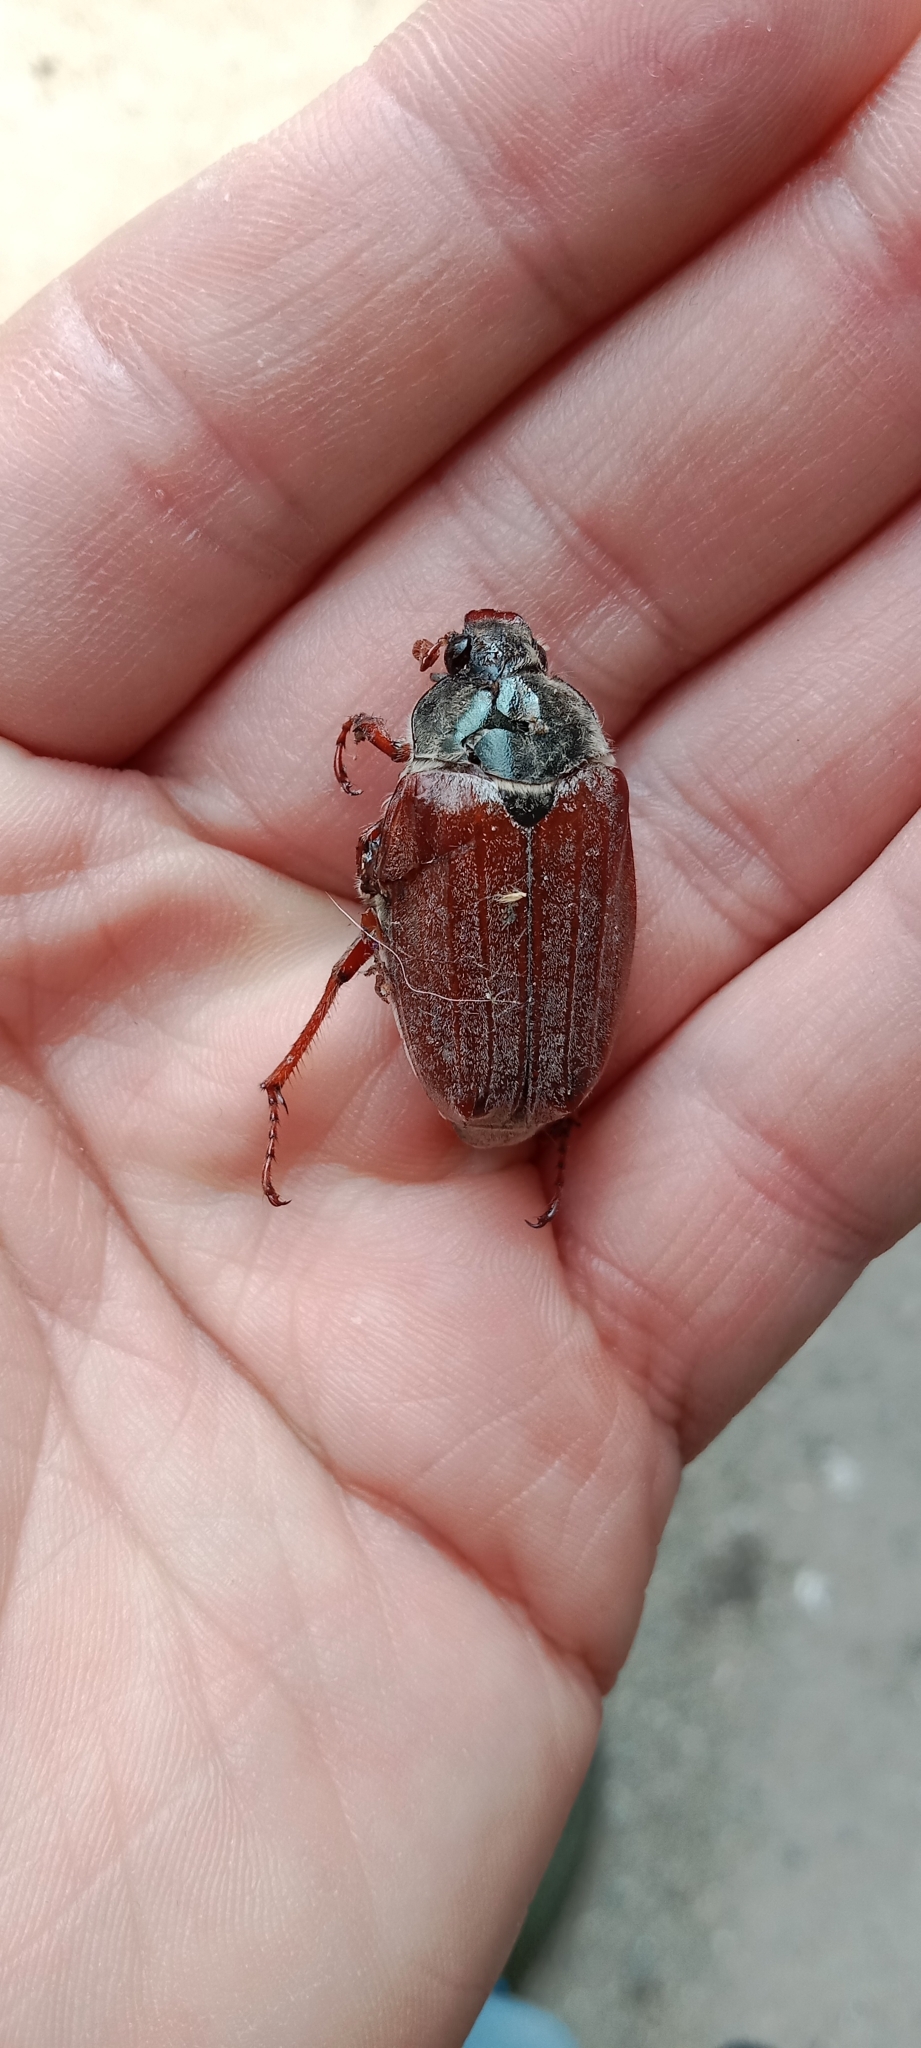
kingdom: Animalia
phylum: Arthropoda
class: Insecta
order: Coleoptera
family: Scarabaeidae
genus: Melolontha
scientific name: Melolontha melolontha
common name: Cockchafer maybeetle
